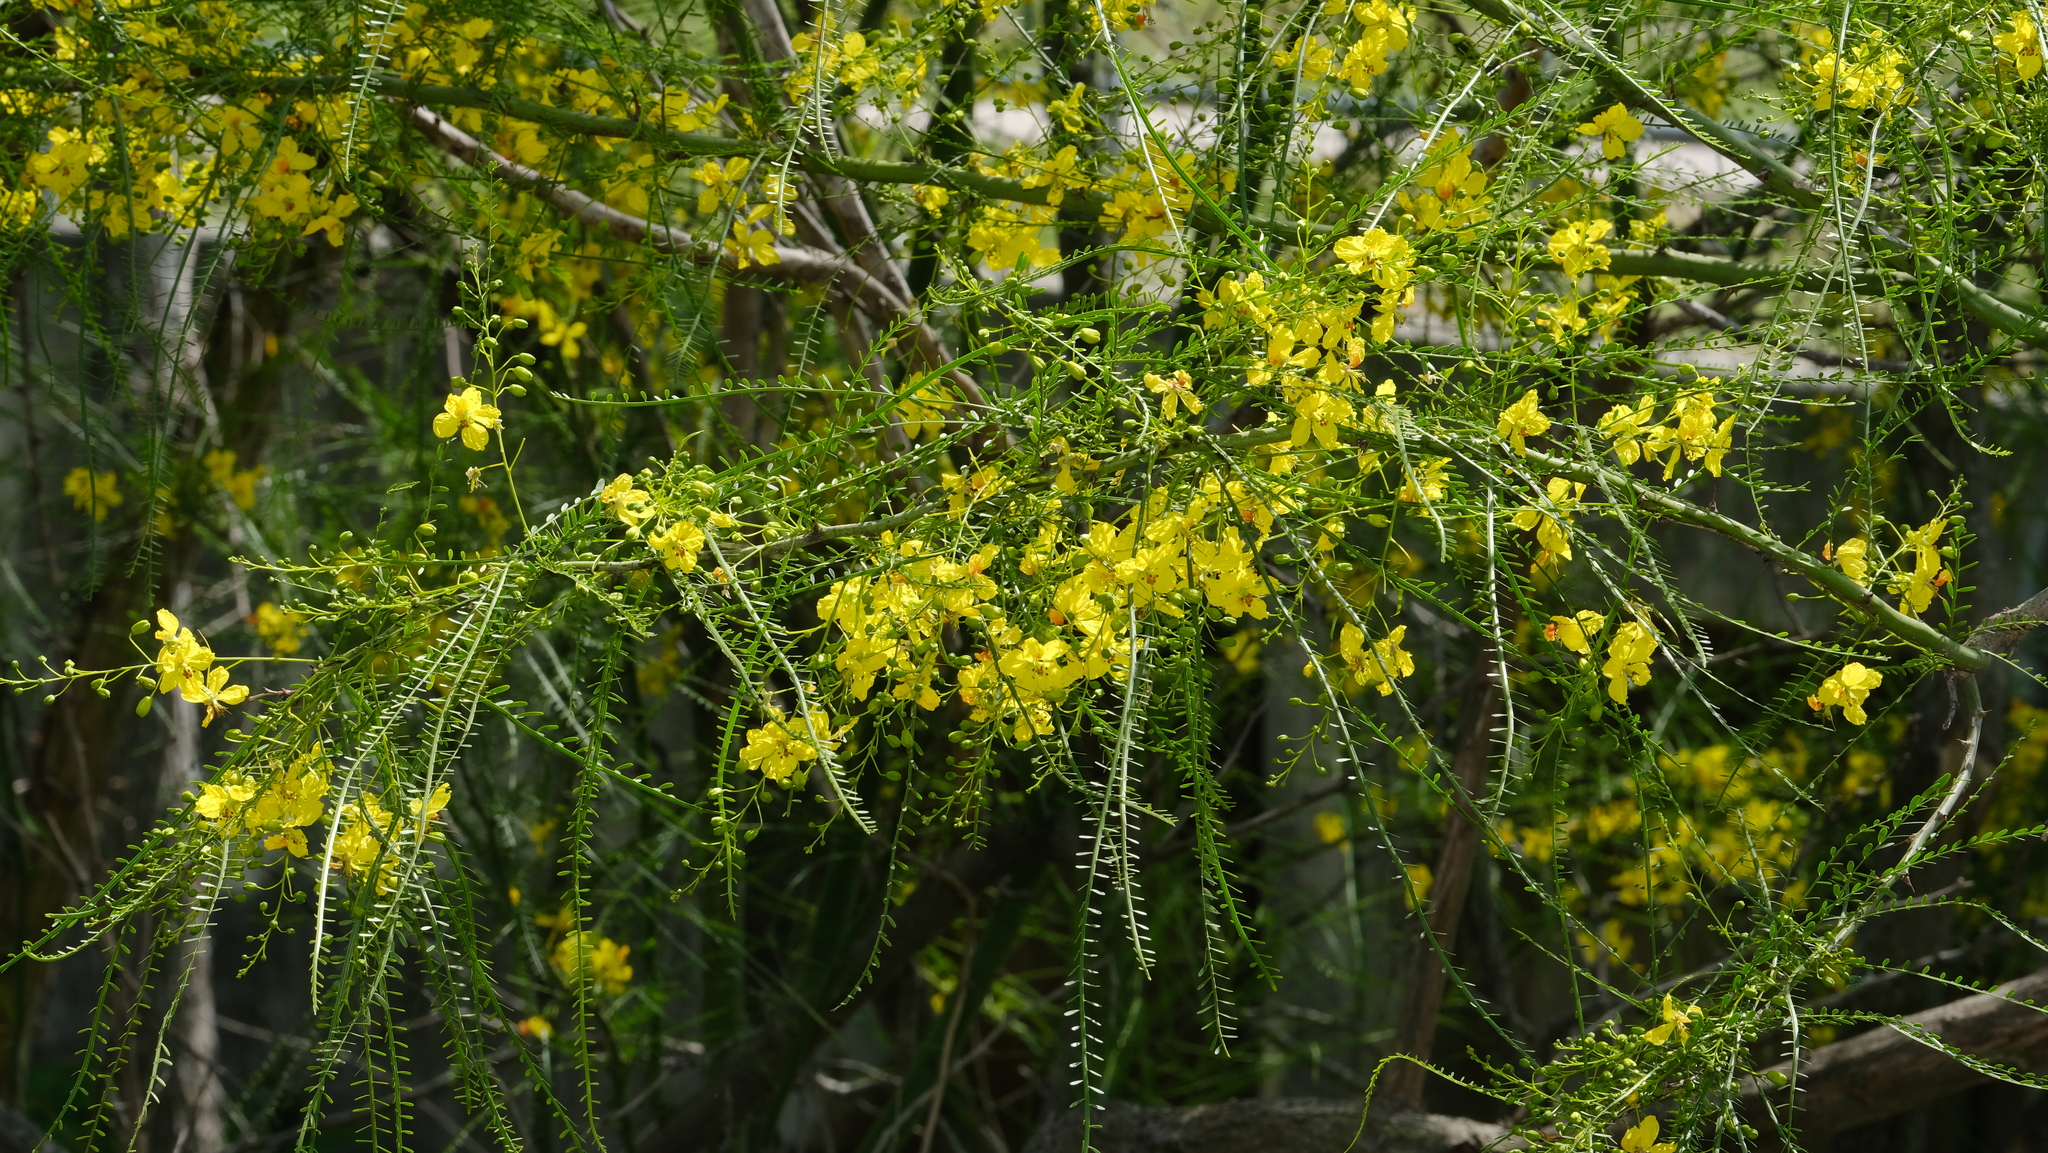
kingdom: Plantae
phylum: Tracheophyta
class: Magnoliopsida
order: Fabales
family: Fabaceae
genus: Parkinsonia
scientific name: Parkinsonia aculeata
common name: Jerusalem thorn
